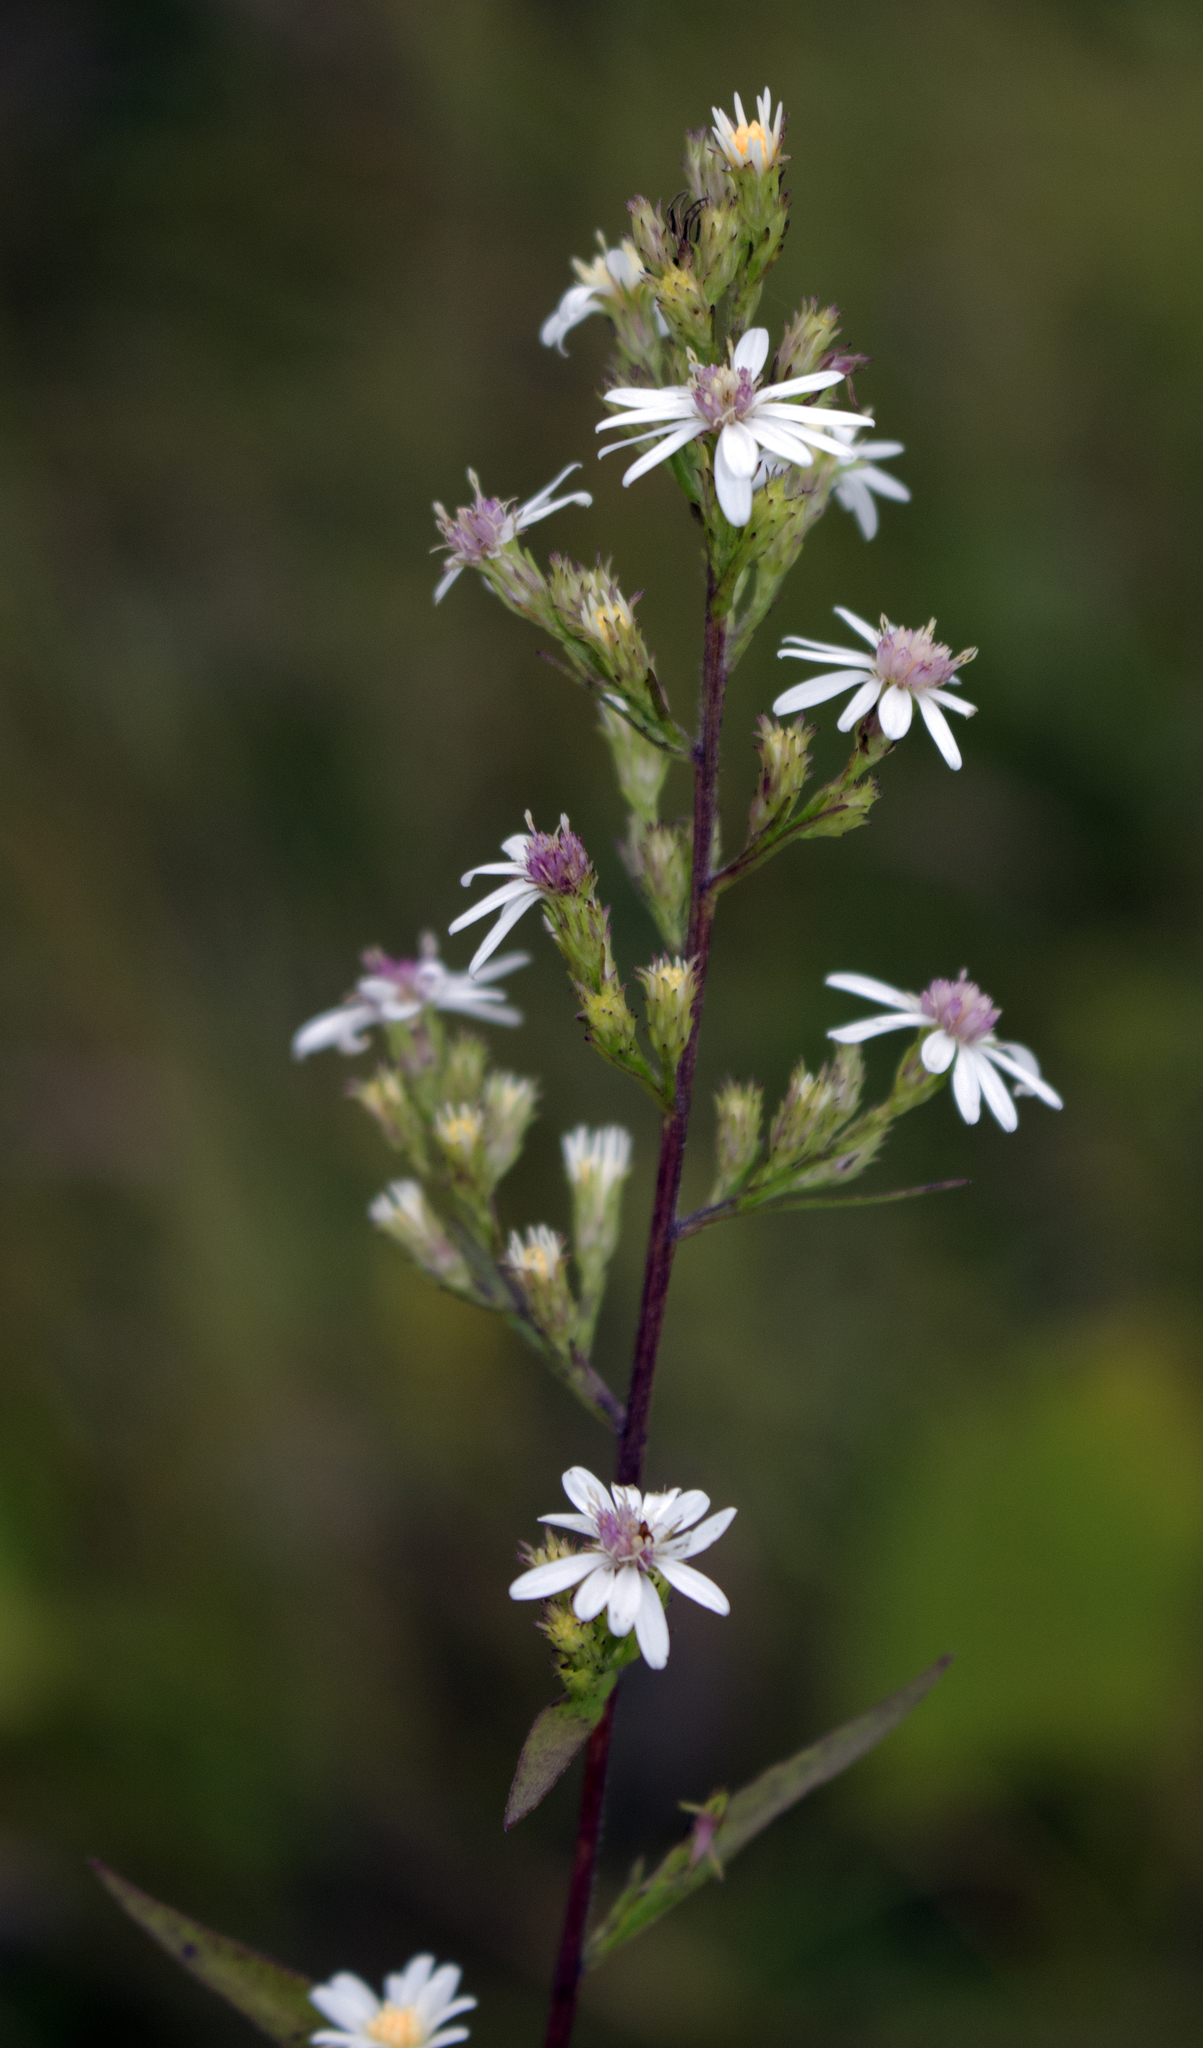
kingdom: Plantae
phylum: Tracheophyta
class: Magnoliopsida
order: Asterales
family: Asteraceae
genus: Symphyotrichum
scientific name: Symphyotrichum lateriflorum
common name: Calico aster
